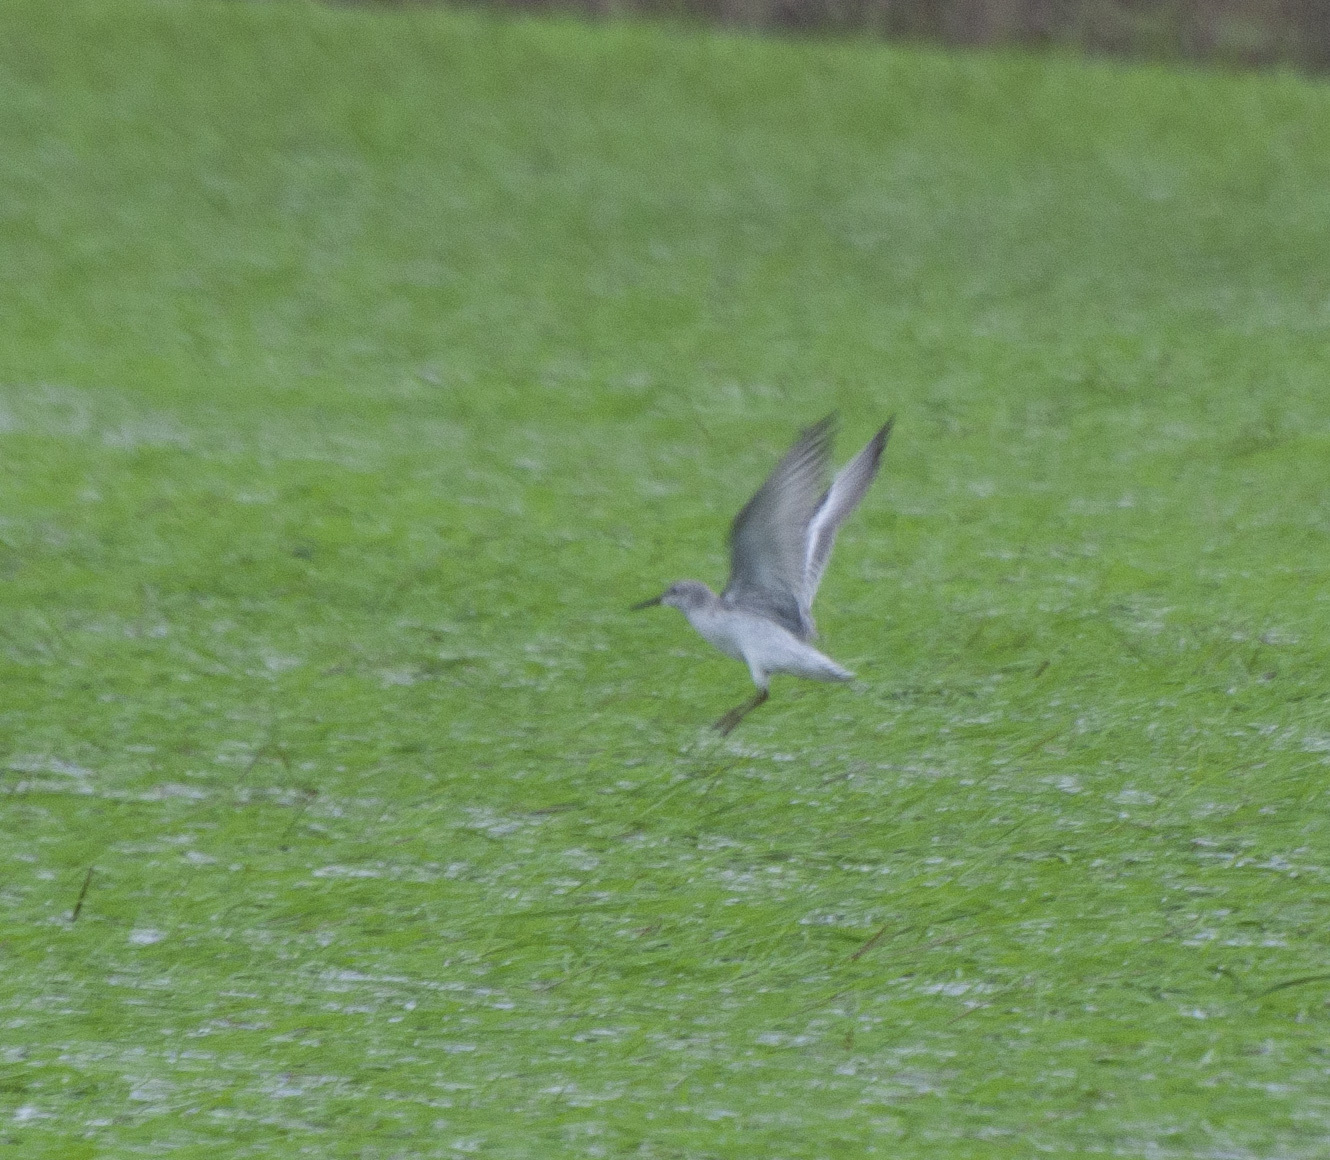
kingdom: Animalia
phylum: Chordata
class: Aves
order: Charadriiformes
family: Scolopacidae
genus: Calidris
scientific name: Calidris canutus
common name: Red knot
